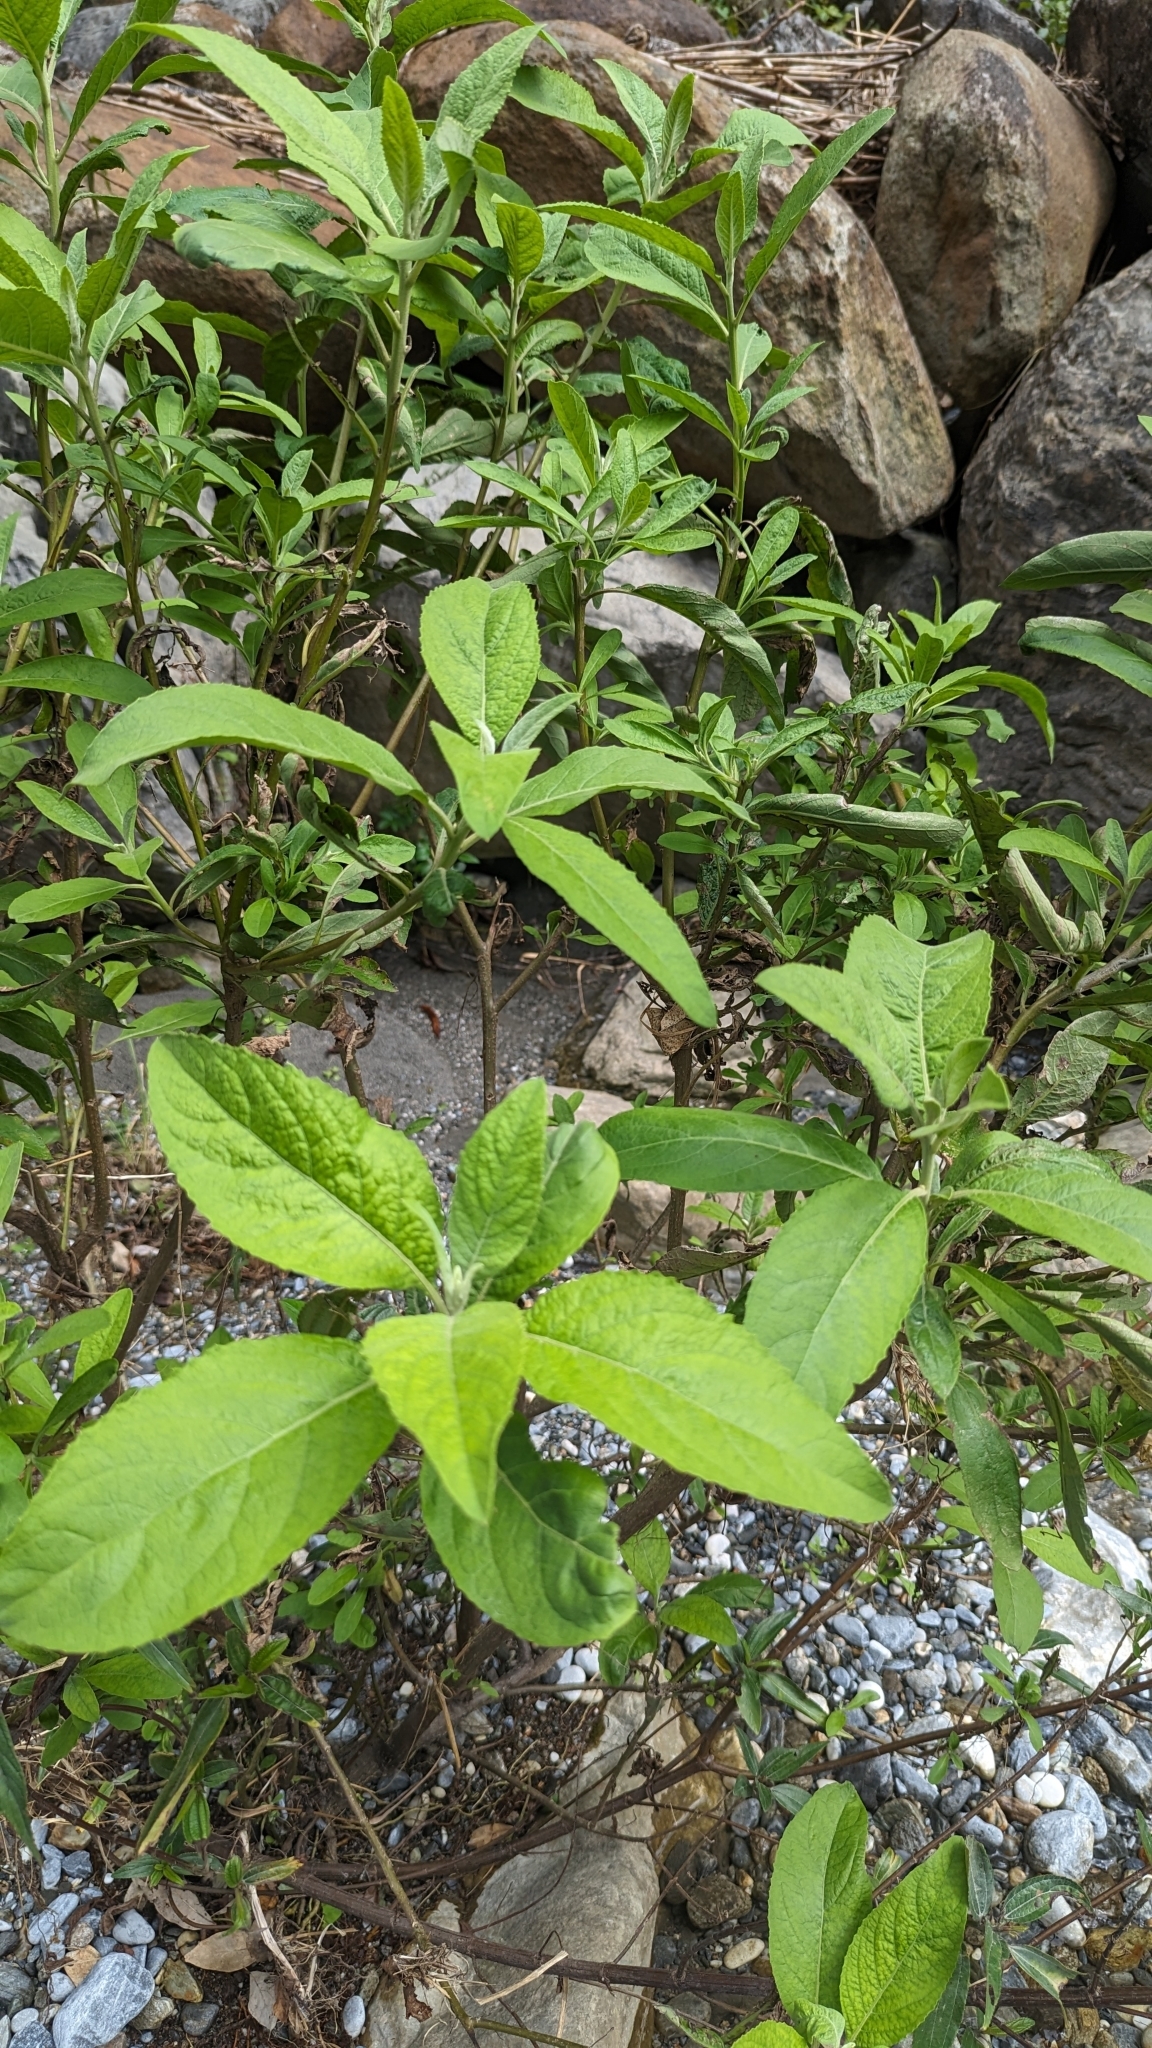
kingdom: Plantae
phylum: Tracheophyta
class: Magnoliopsida
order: Asterales
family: Asteraceae
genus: Pluchea
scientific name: Pluchea carolinensis
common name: Marsh fleabane
